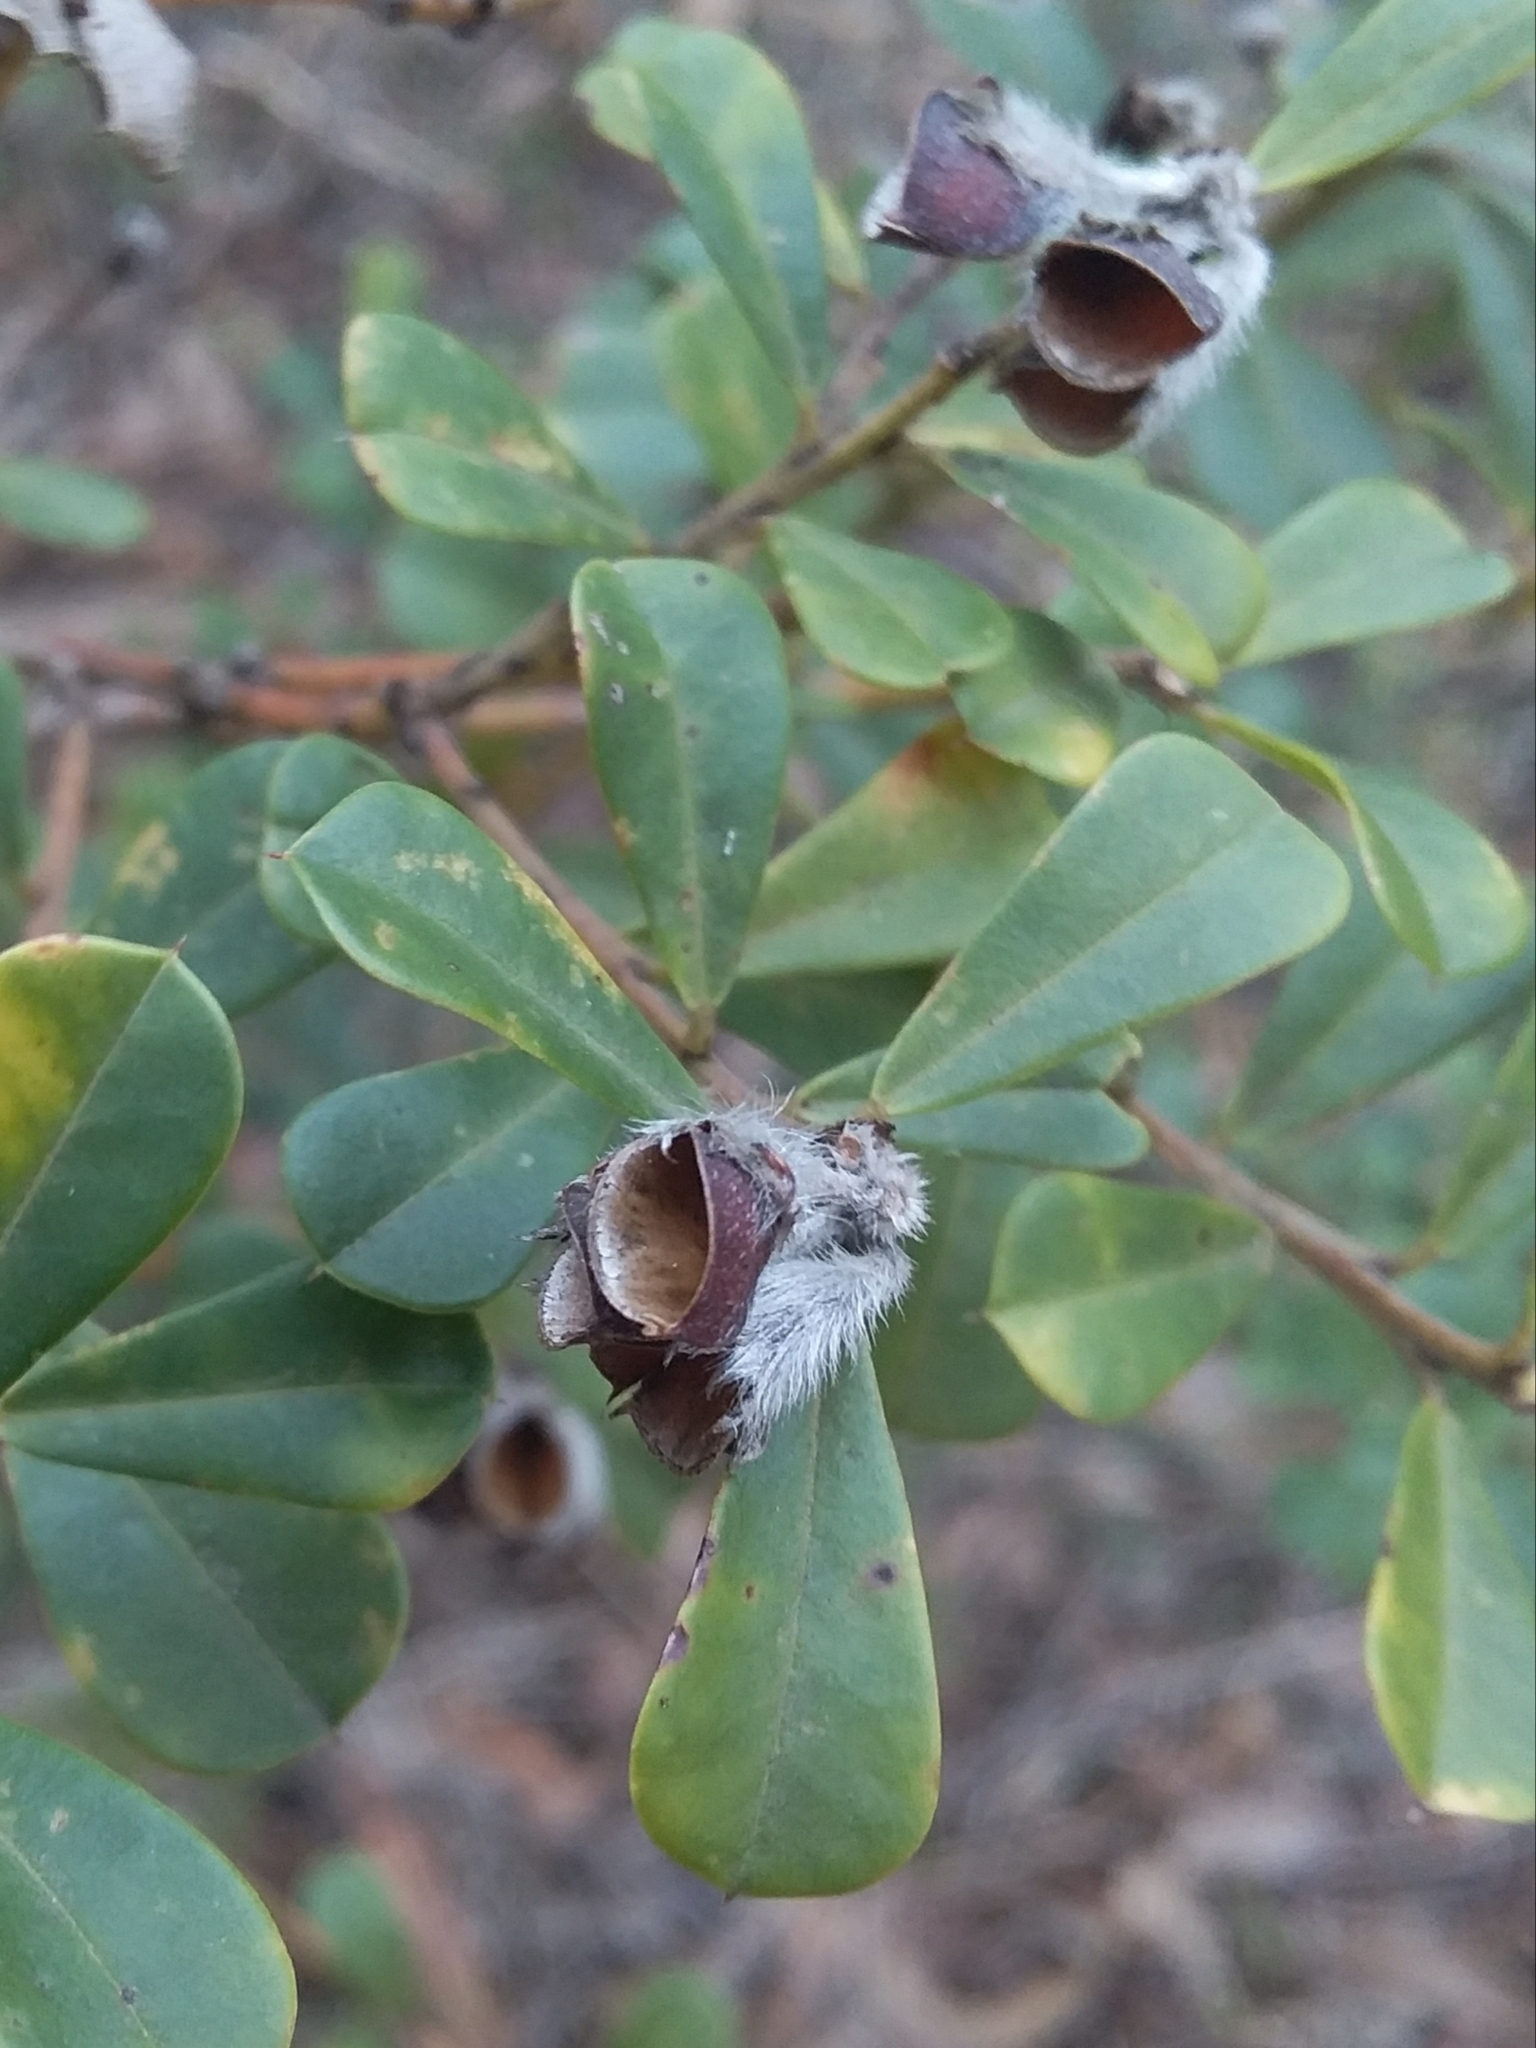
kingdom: Plantae
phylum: Tracheophyta
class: Magnoliopsida
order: Fabales
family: Fabaceae
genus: Pultenaea
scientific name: Pultenaea daphnoides
